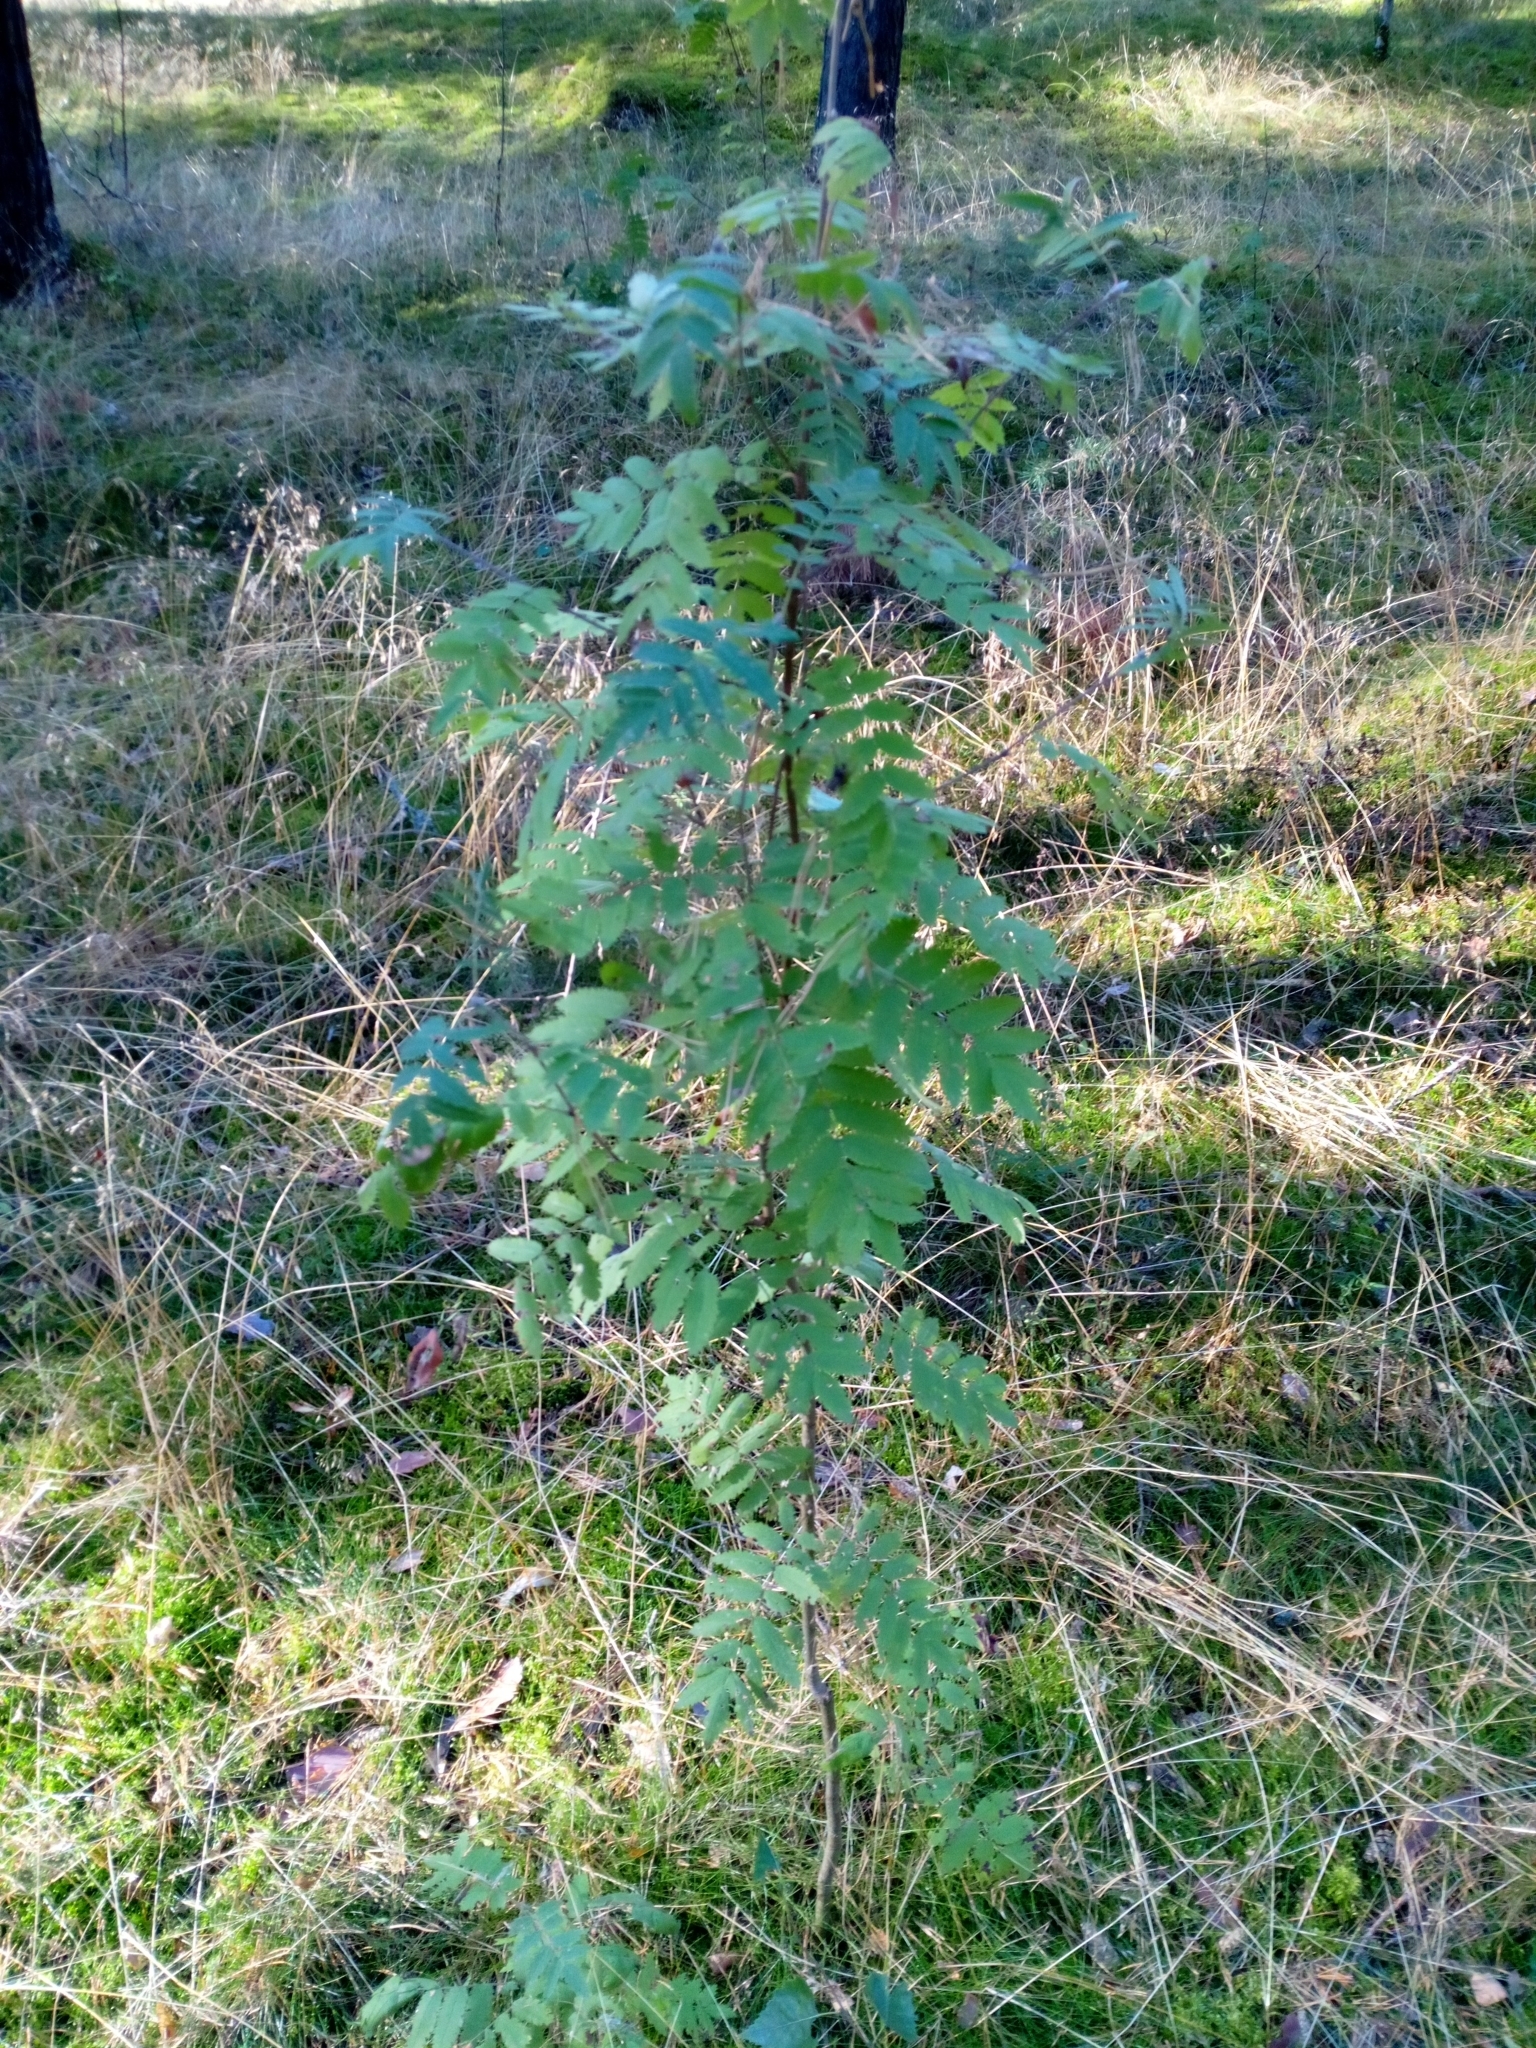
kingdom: Plantae
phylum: Tracheophyta
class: Magnoliopsida
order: Rosales
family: Rosaceae
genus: Sorbus
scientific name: Sorbus aucuparia
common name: Rowan
